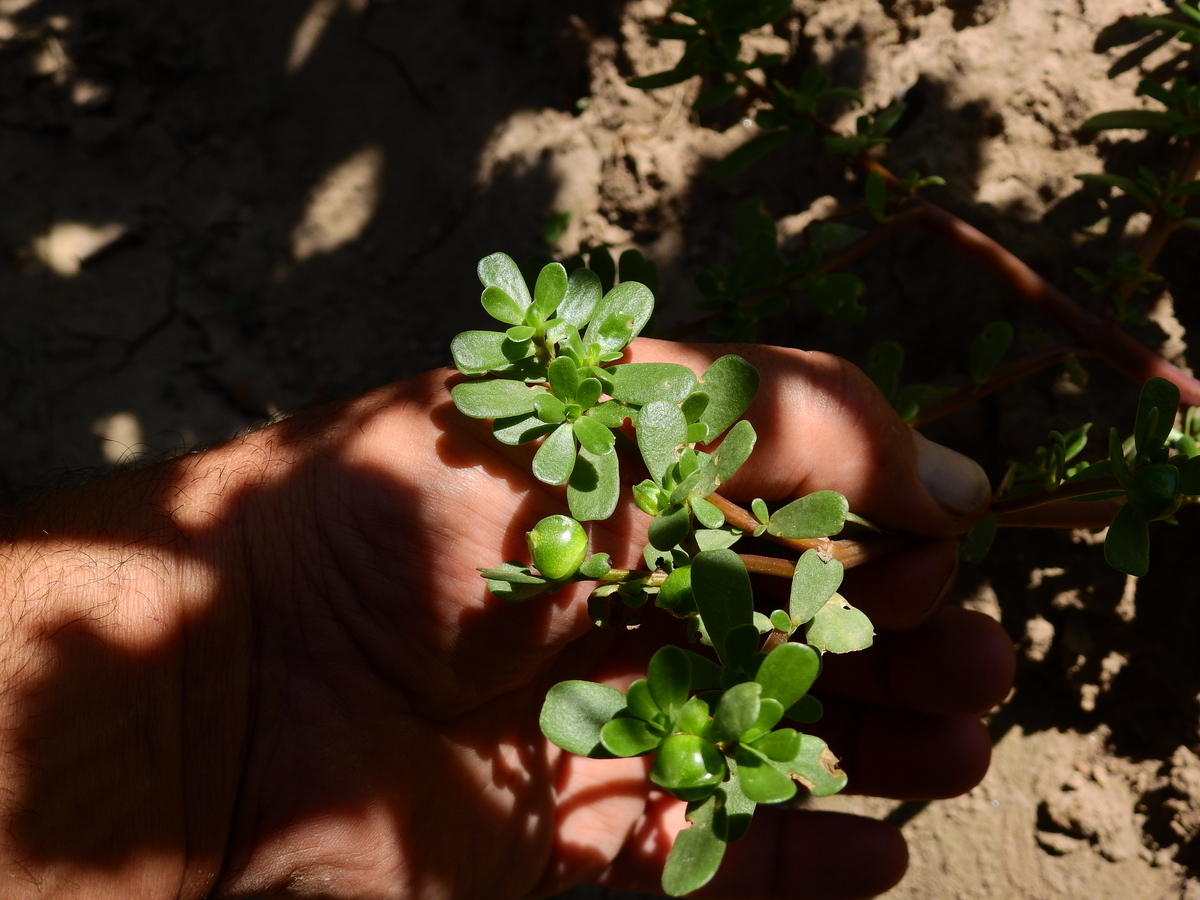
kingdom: Plantae
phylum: Tracheophyta
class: Magnoliopsida
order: Caryophyllales
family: Portulacaceae
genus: Portulaca
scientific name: Portulaca oleracea
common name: Common purslane
